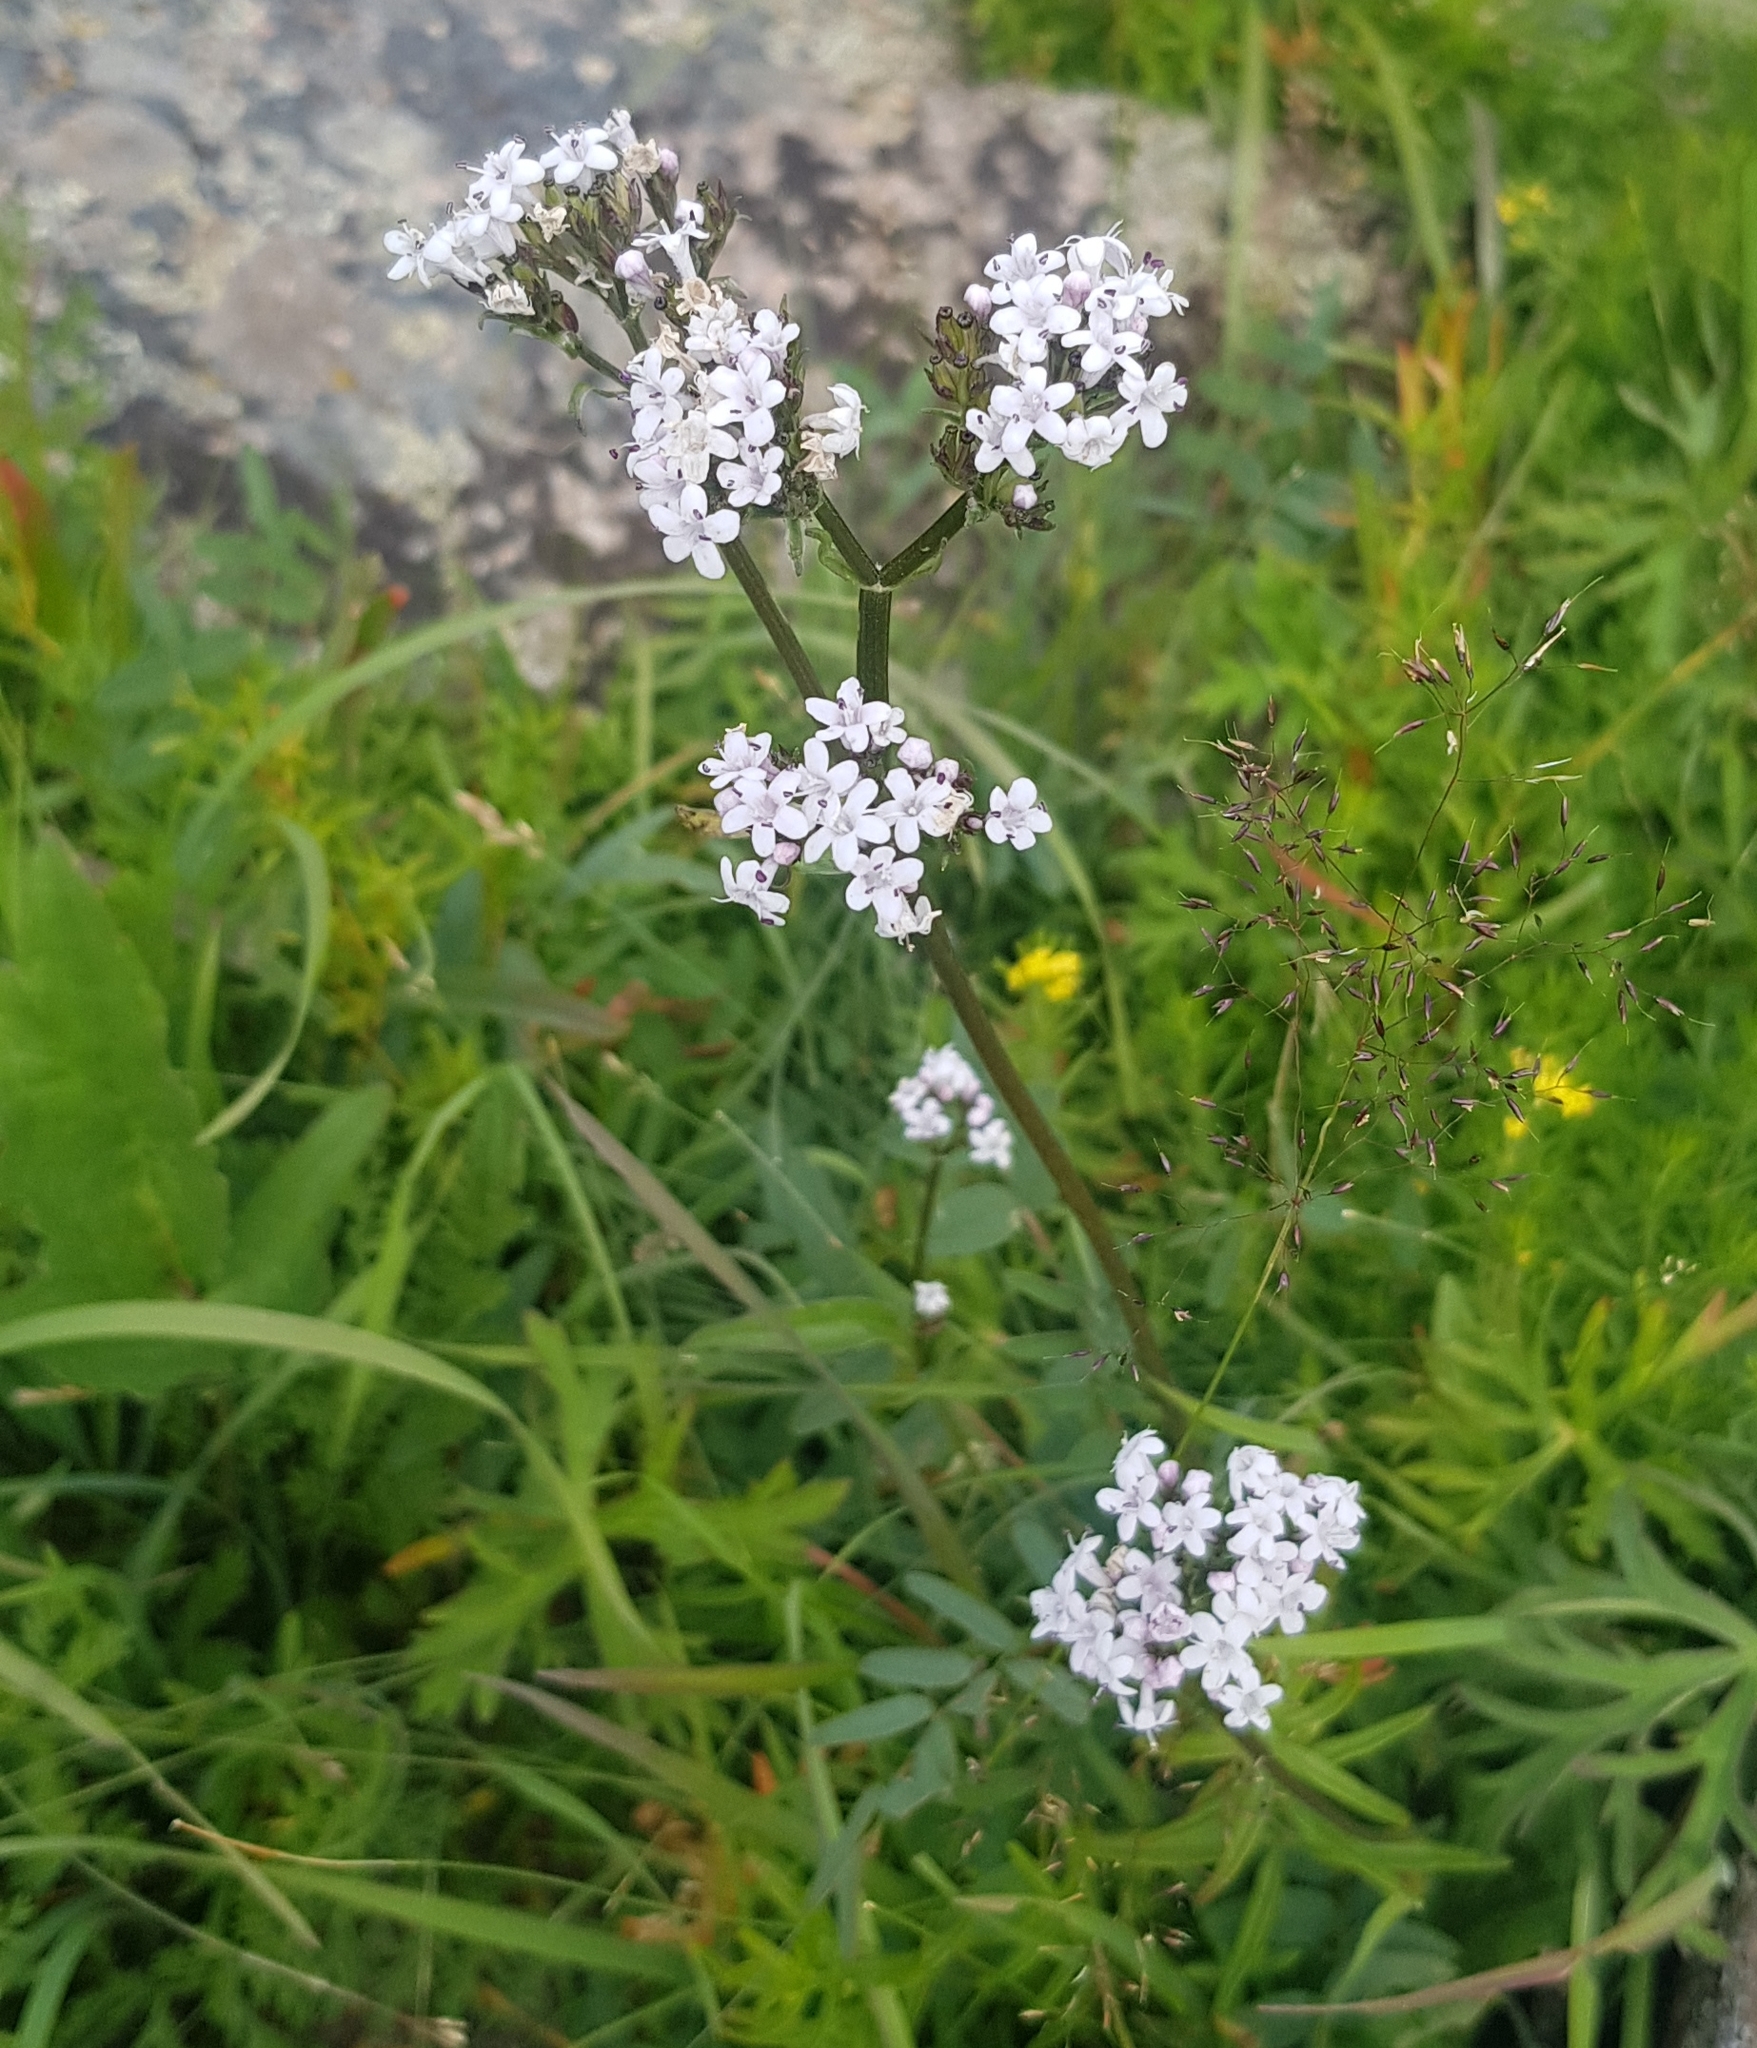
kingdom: Plantae
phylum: Tracheophyta
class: Magnoliopsida
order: Dipsacales
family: Caprifoliaceae
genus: Valeriana
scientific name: Valeriana officinalis
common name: Common valerian
